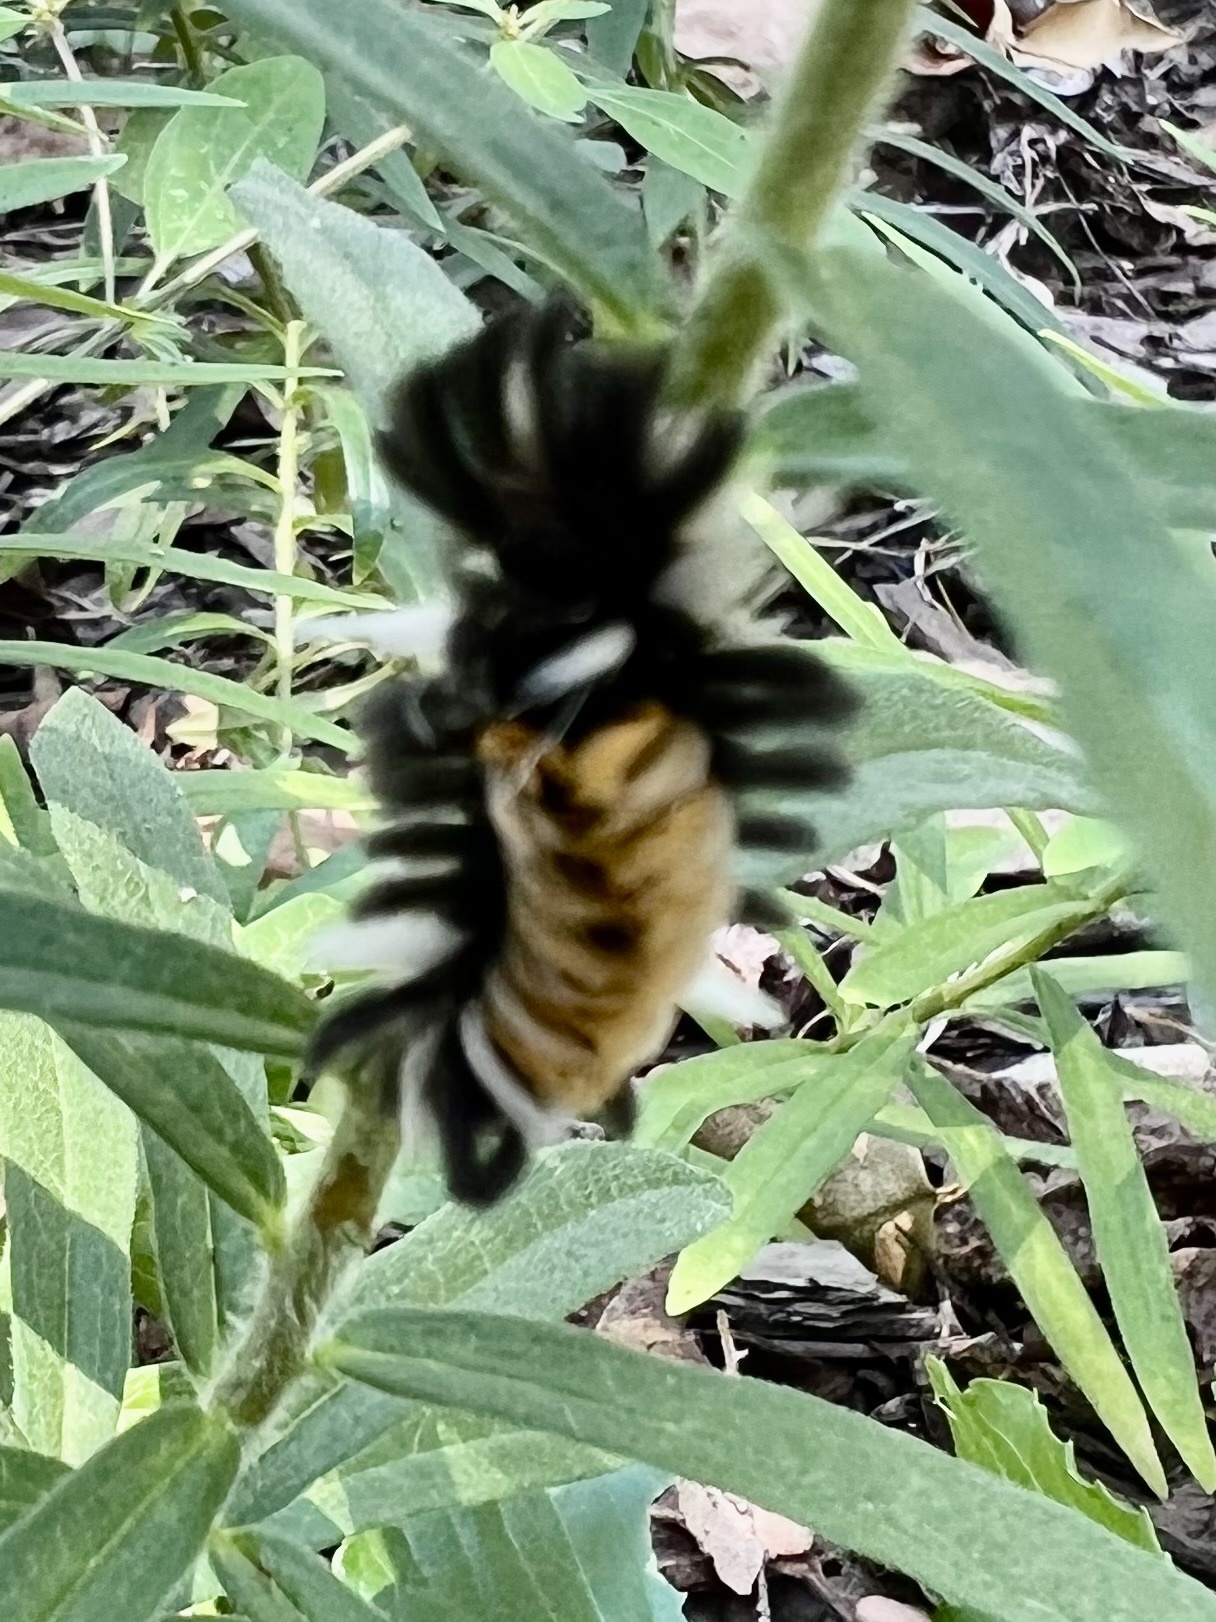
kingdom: Animalia
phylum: Arthropoda
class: Insecta
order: Lepidoptera
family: Erebidae
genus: Euchaetes
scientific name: Euchaetes egle
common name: Milkweed tussock moth
